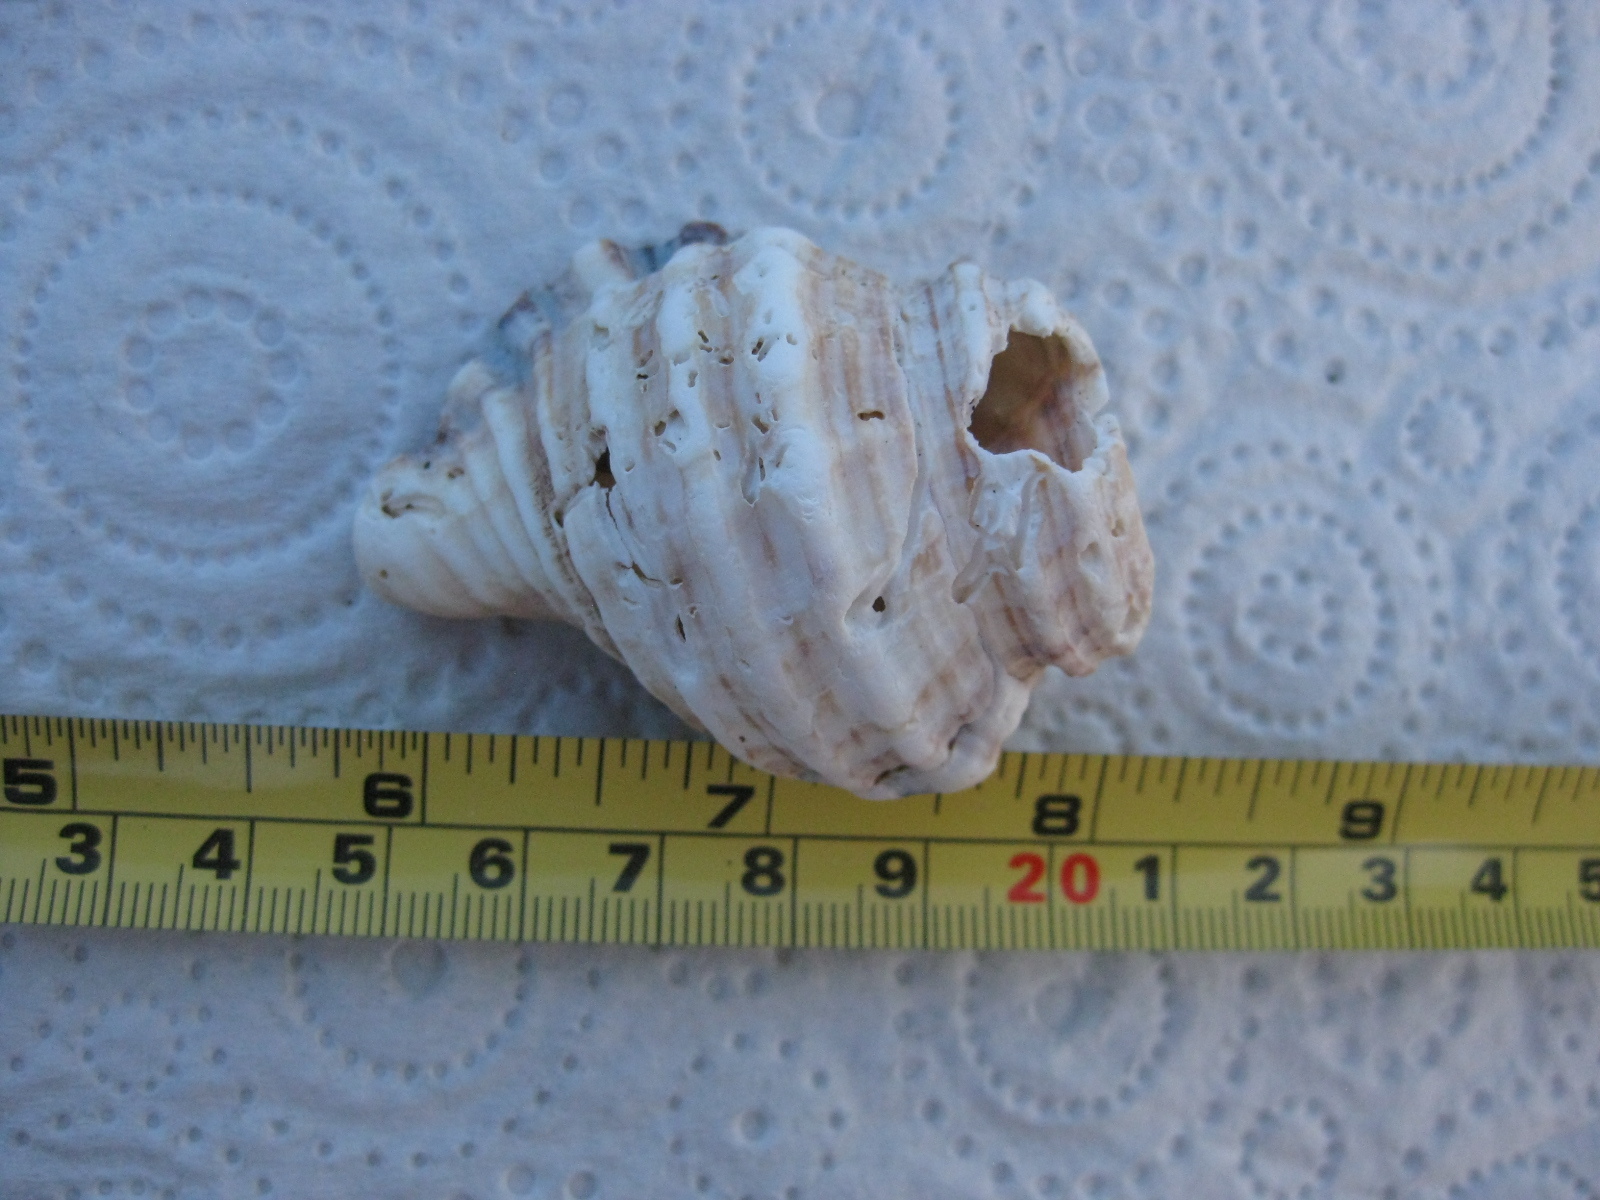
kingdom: Animalia
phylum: Mollusca
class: Gastropoda
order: Littorinimorpha
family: Cymatiidae
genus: Monoplex
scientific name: Monoplex parthenopeus
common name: Giant triton
